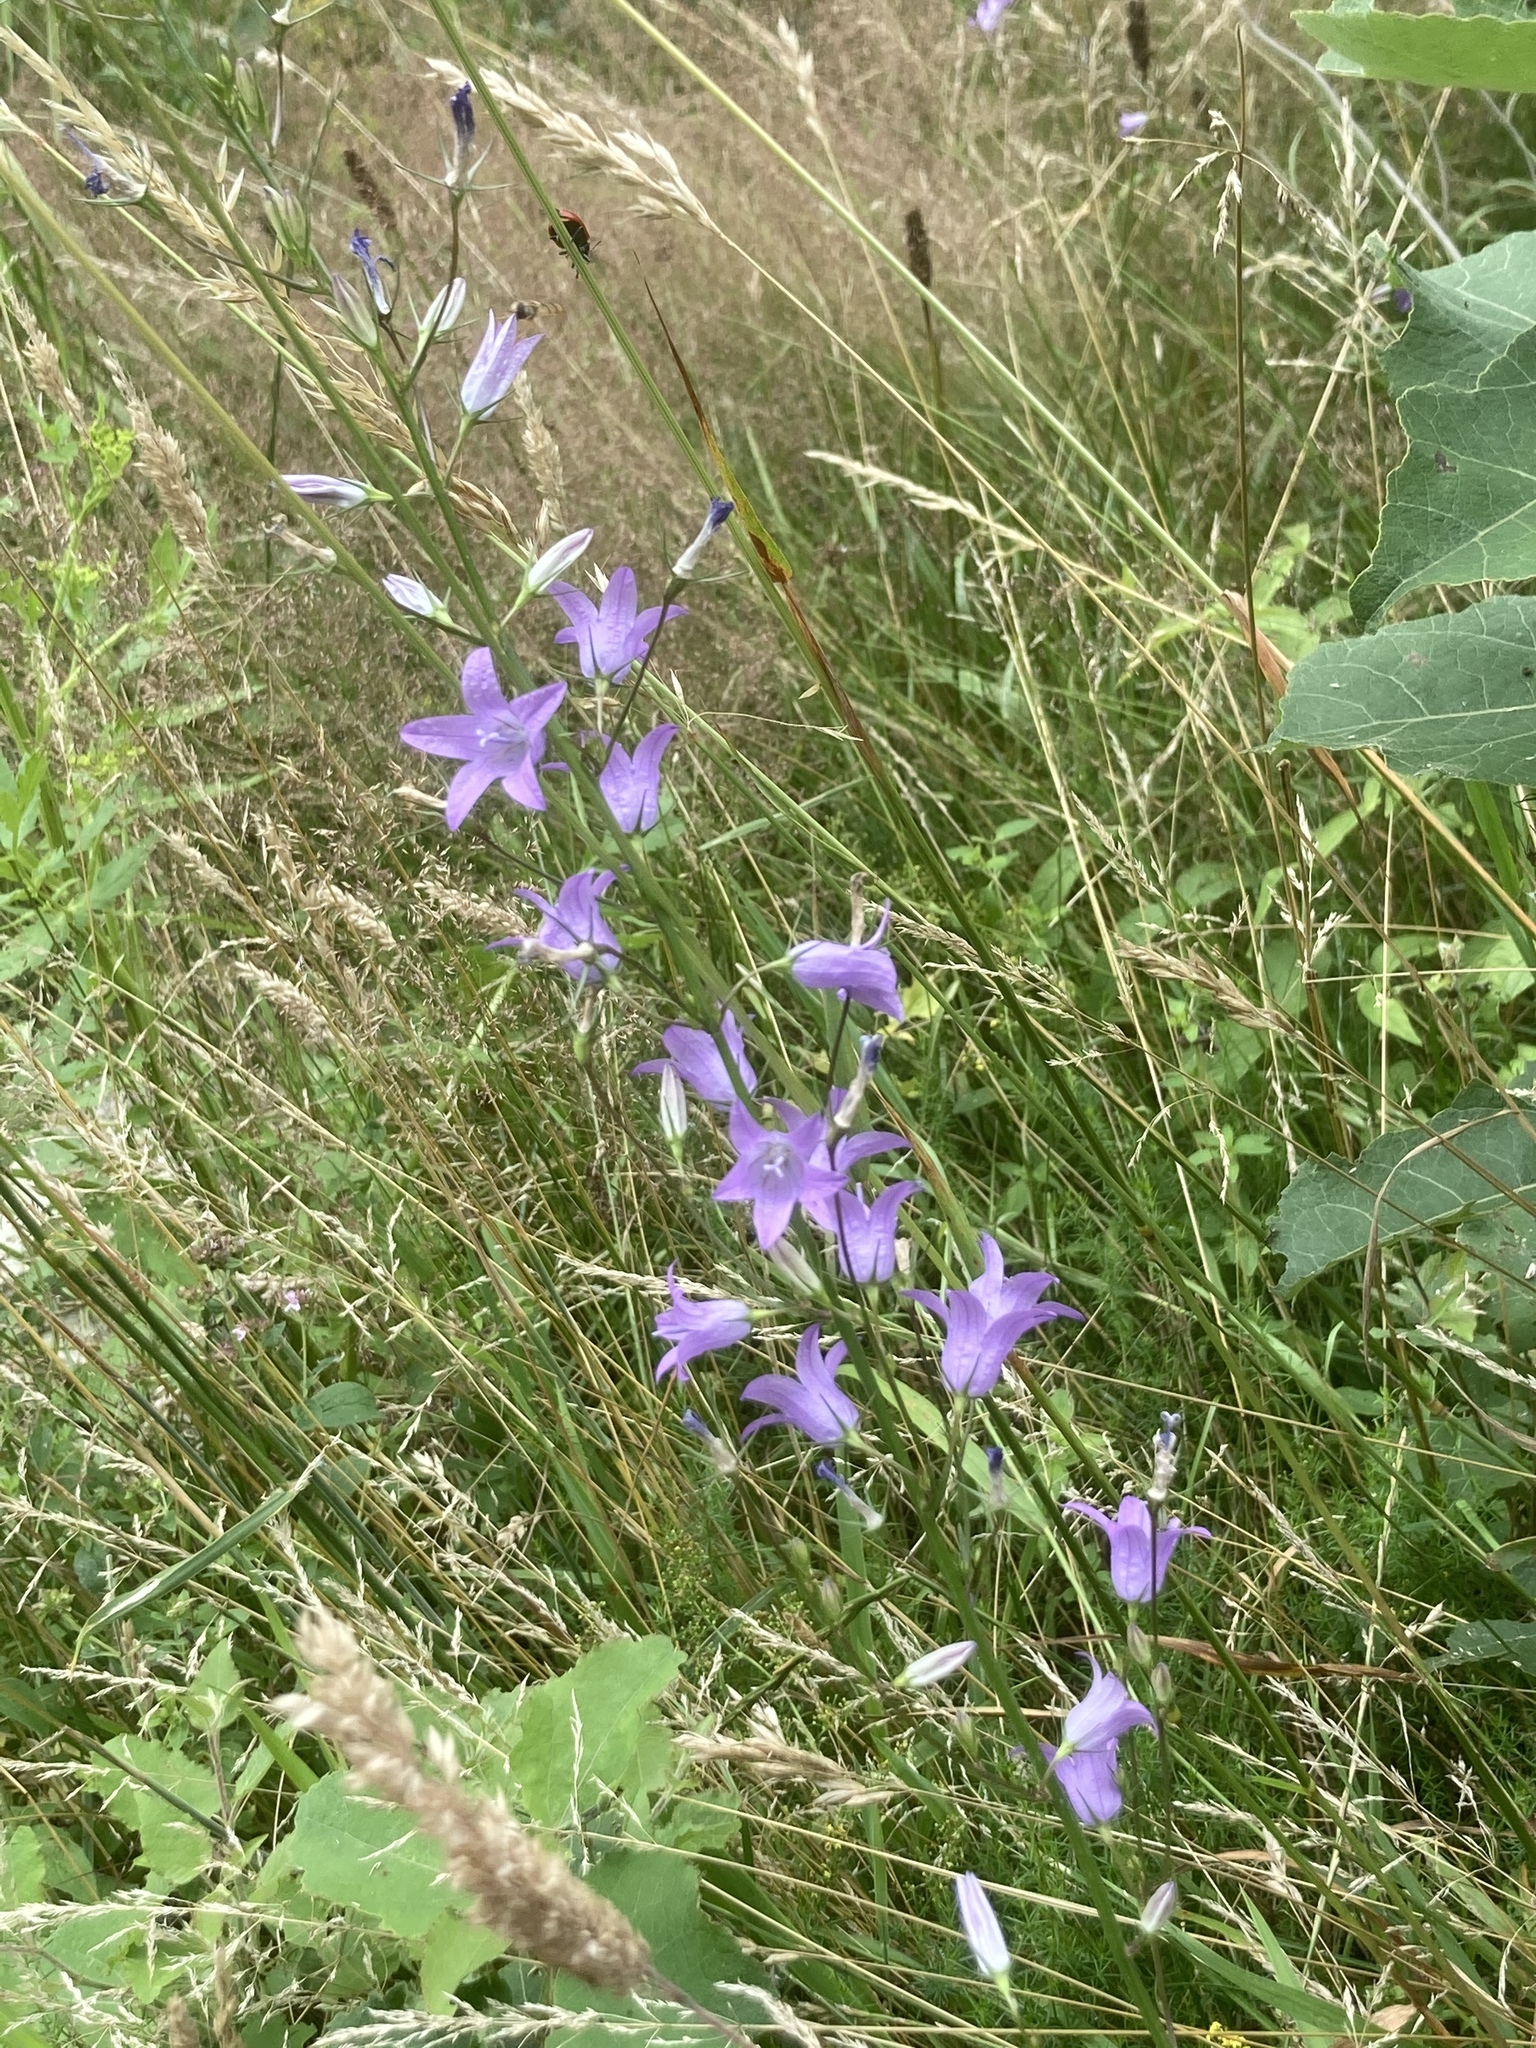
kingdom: Plantae
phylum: Tracheophyta
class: Magnoliopsida
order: Asterales
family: Campanulaceae
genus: Campanula
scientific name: Campanula rapunculus
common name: Rampion bellflower
